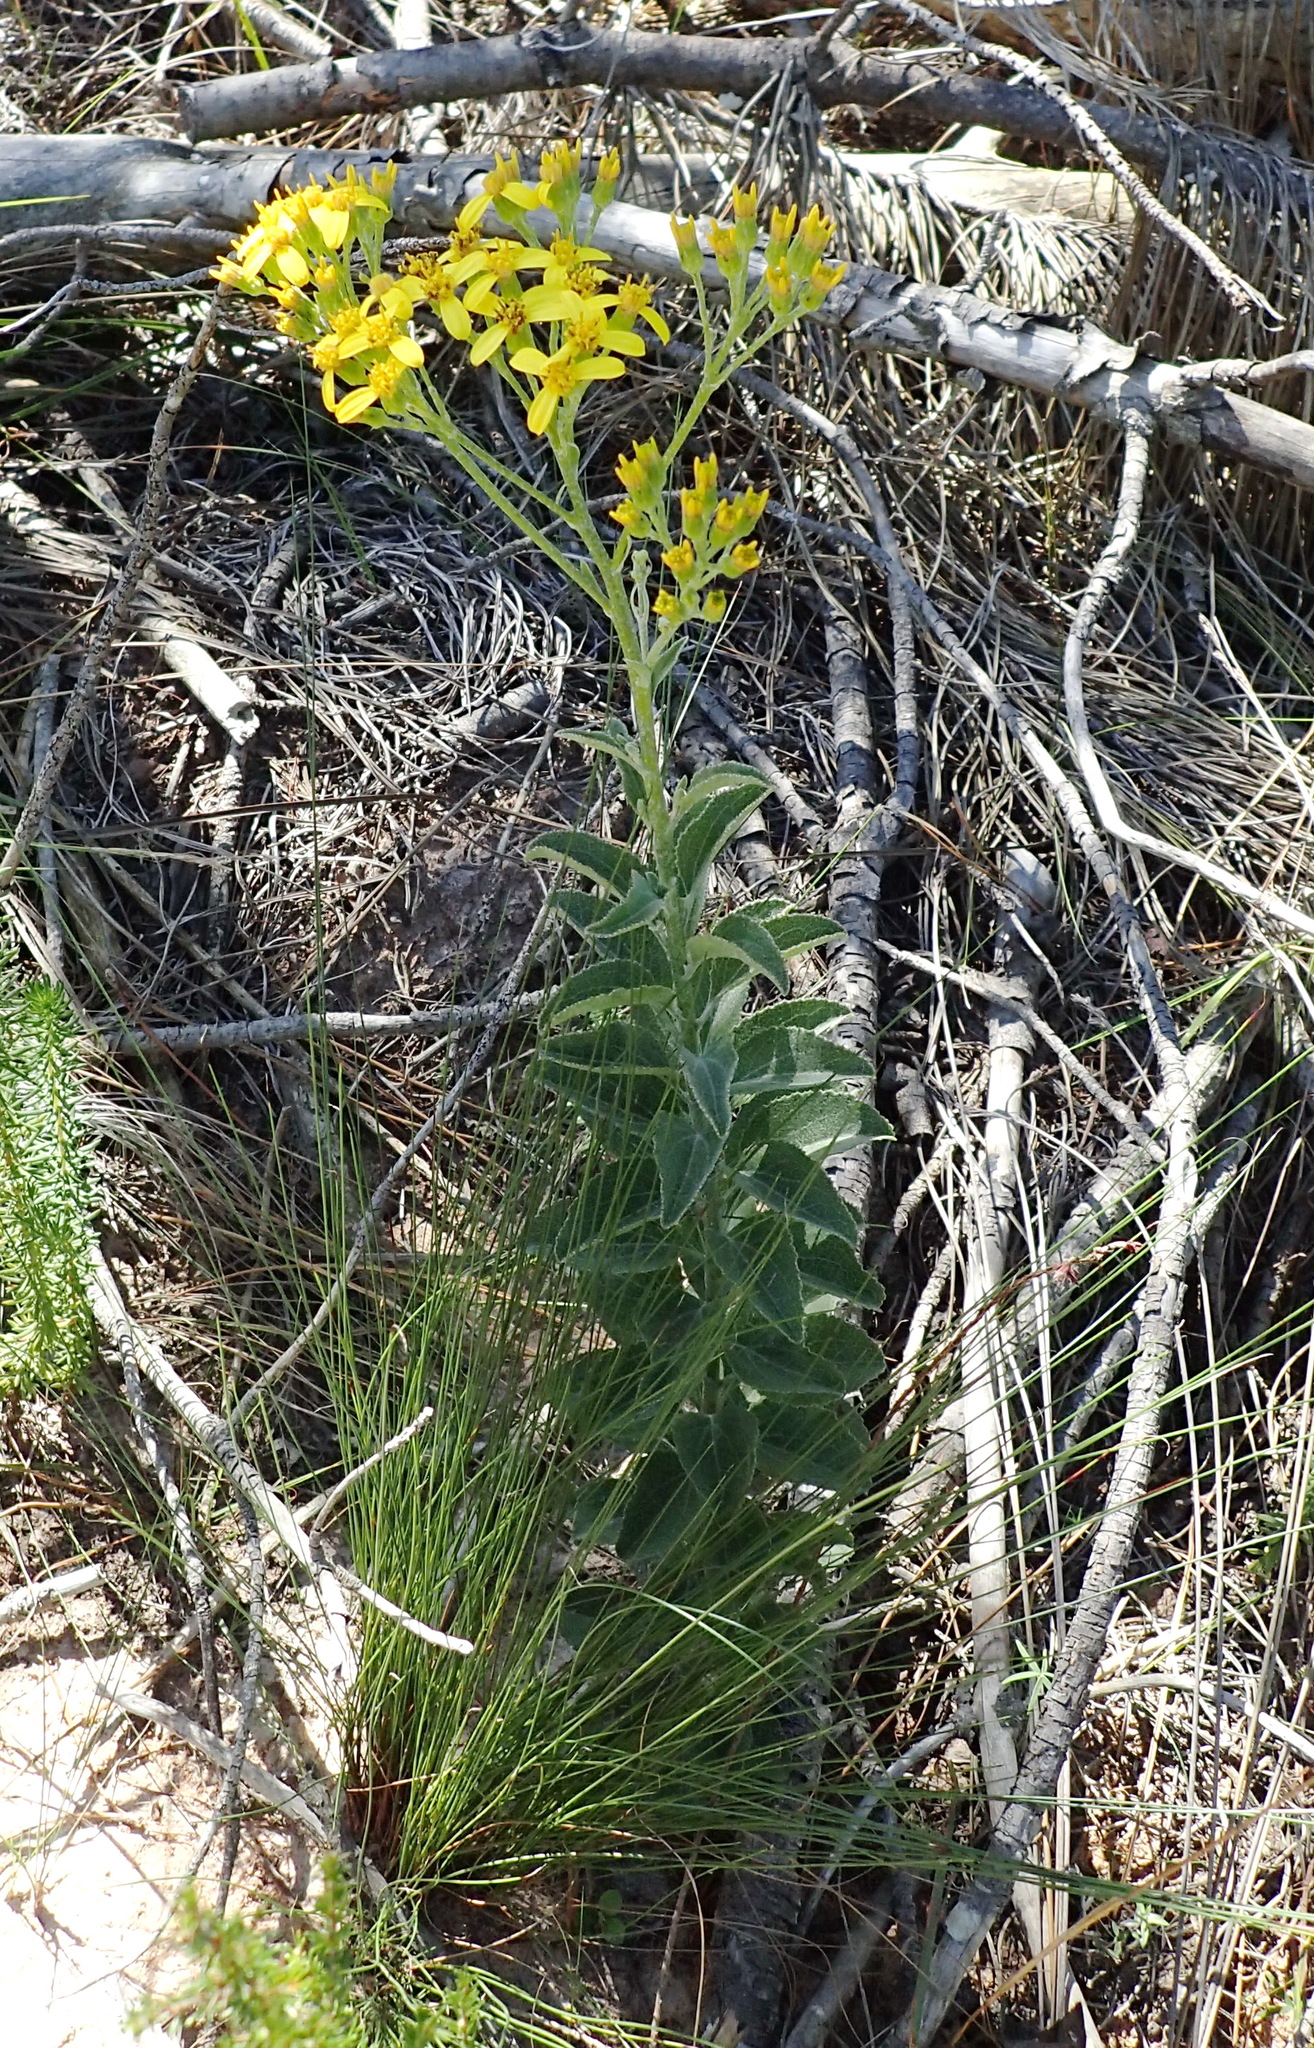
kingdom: Plantae
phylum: Tracheophyta
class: Magnoliopsida
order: Asterales
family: Asteraceae
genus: Senecio
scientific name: Senecio crenatus
